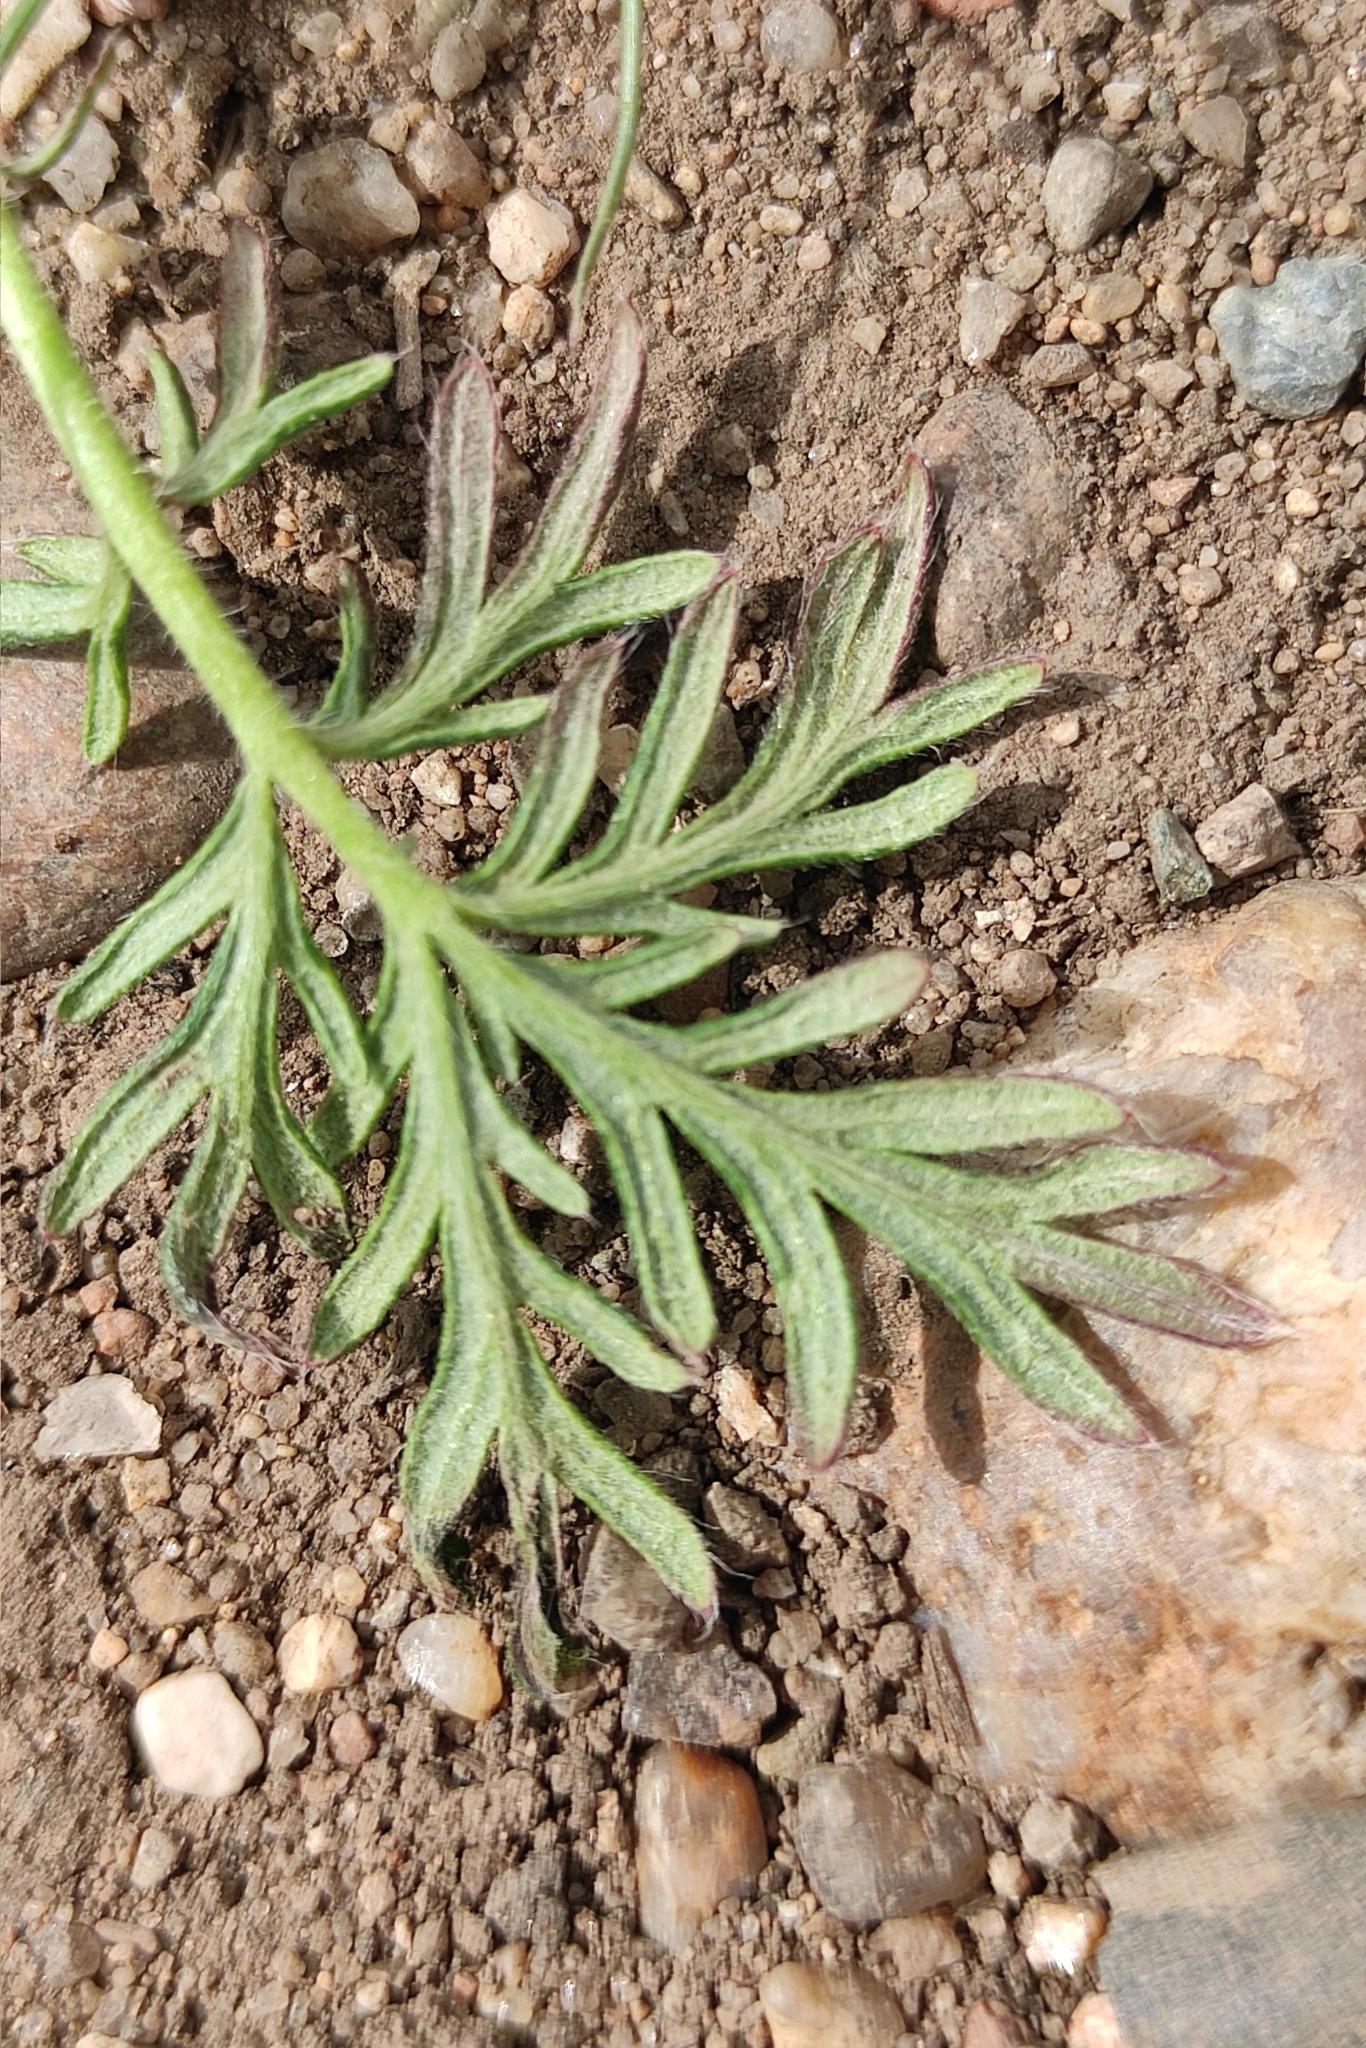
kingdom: Plantae
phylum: Tracheophyta
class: Magnoliopsida
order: Rosales
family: Rosaceae
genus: Potentilla
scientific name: Potentilla tergemina
